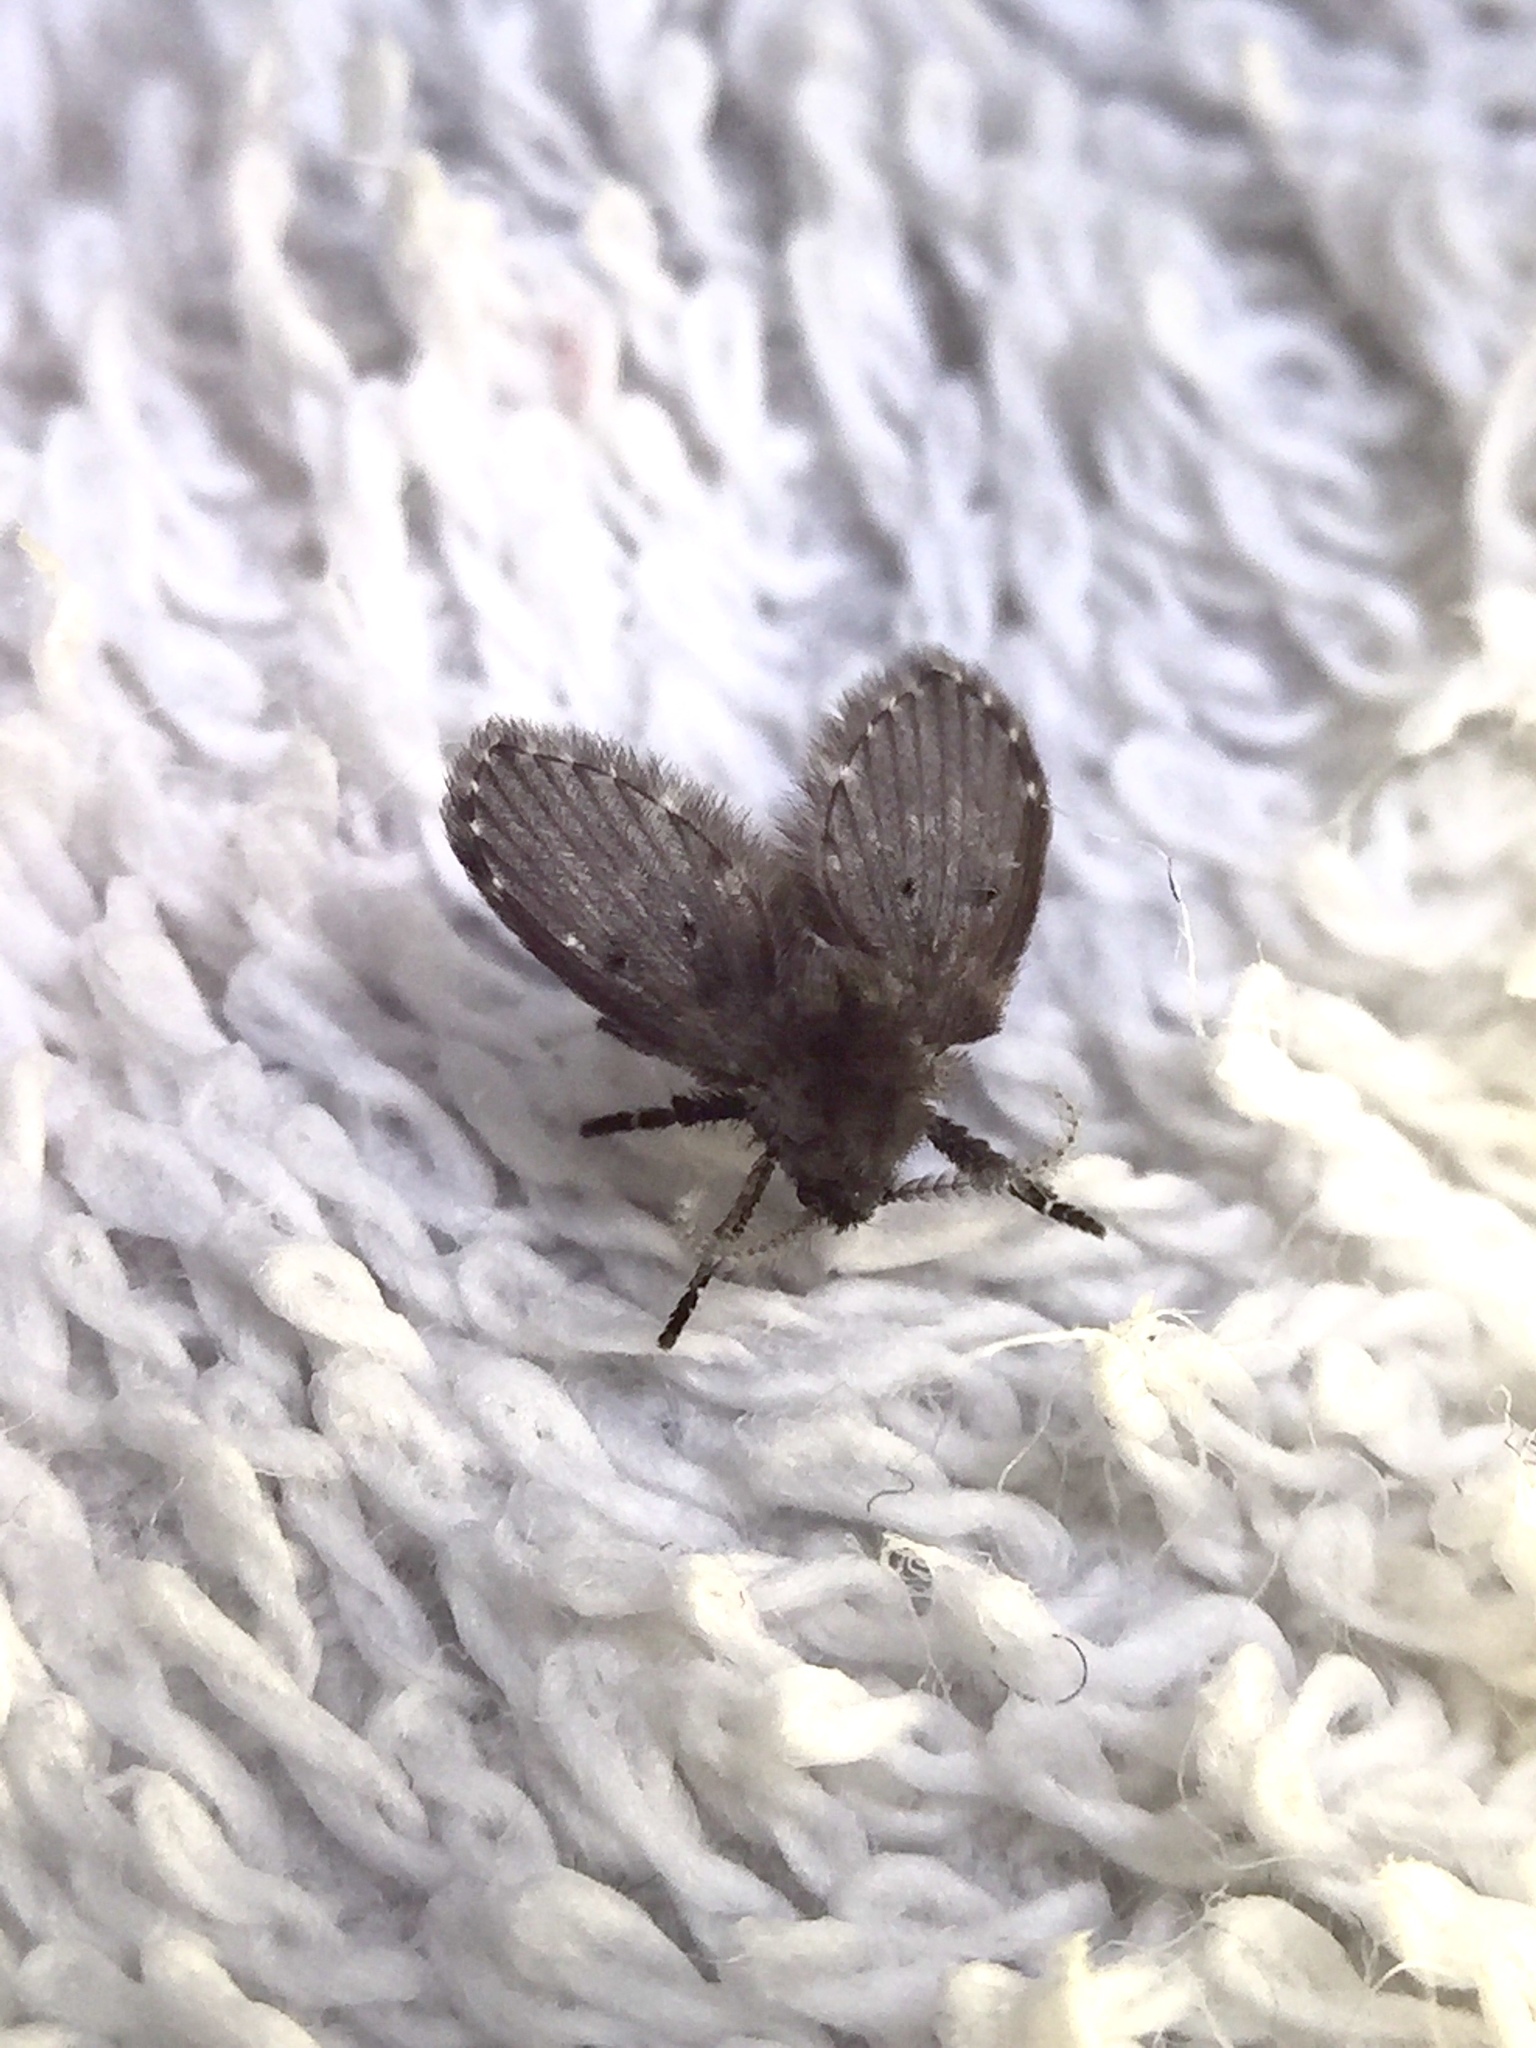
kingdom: Animalia
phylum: Arthropoda
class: Insecta
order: Diptera
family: Psychodidae
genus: Clogmia
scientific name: Clogmia albipunctatus
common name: White-spotted moth fly
